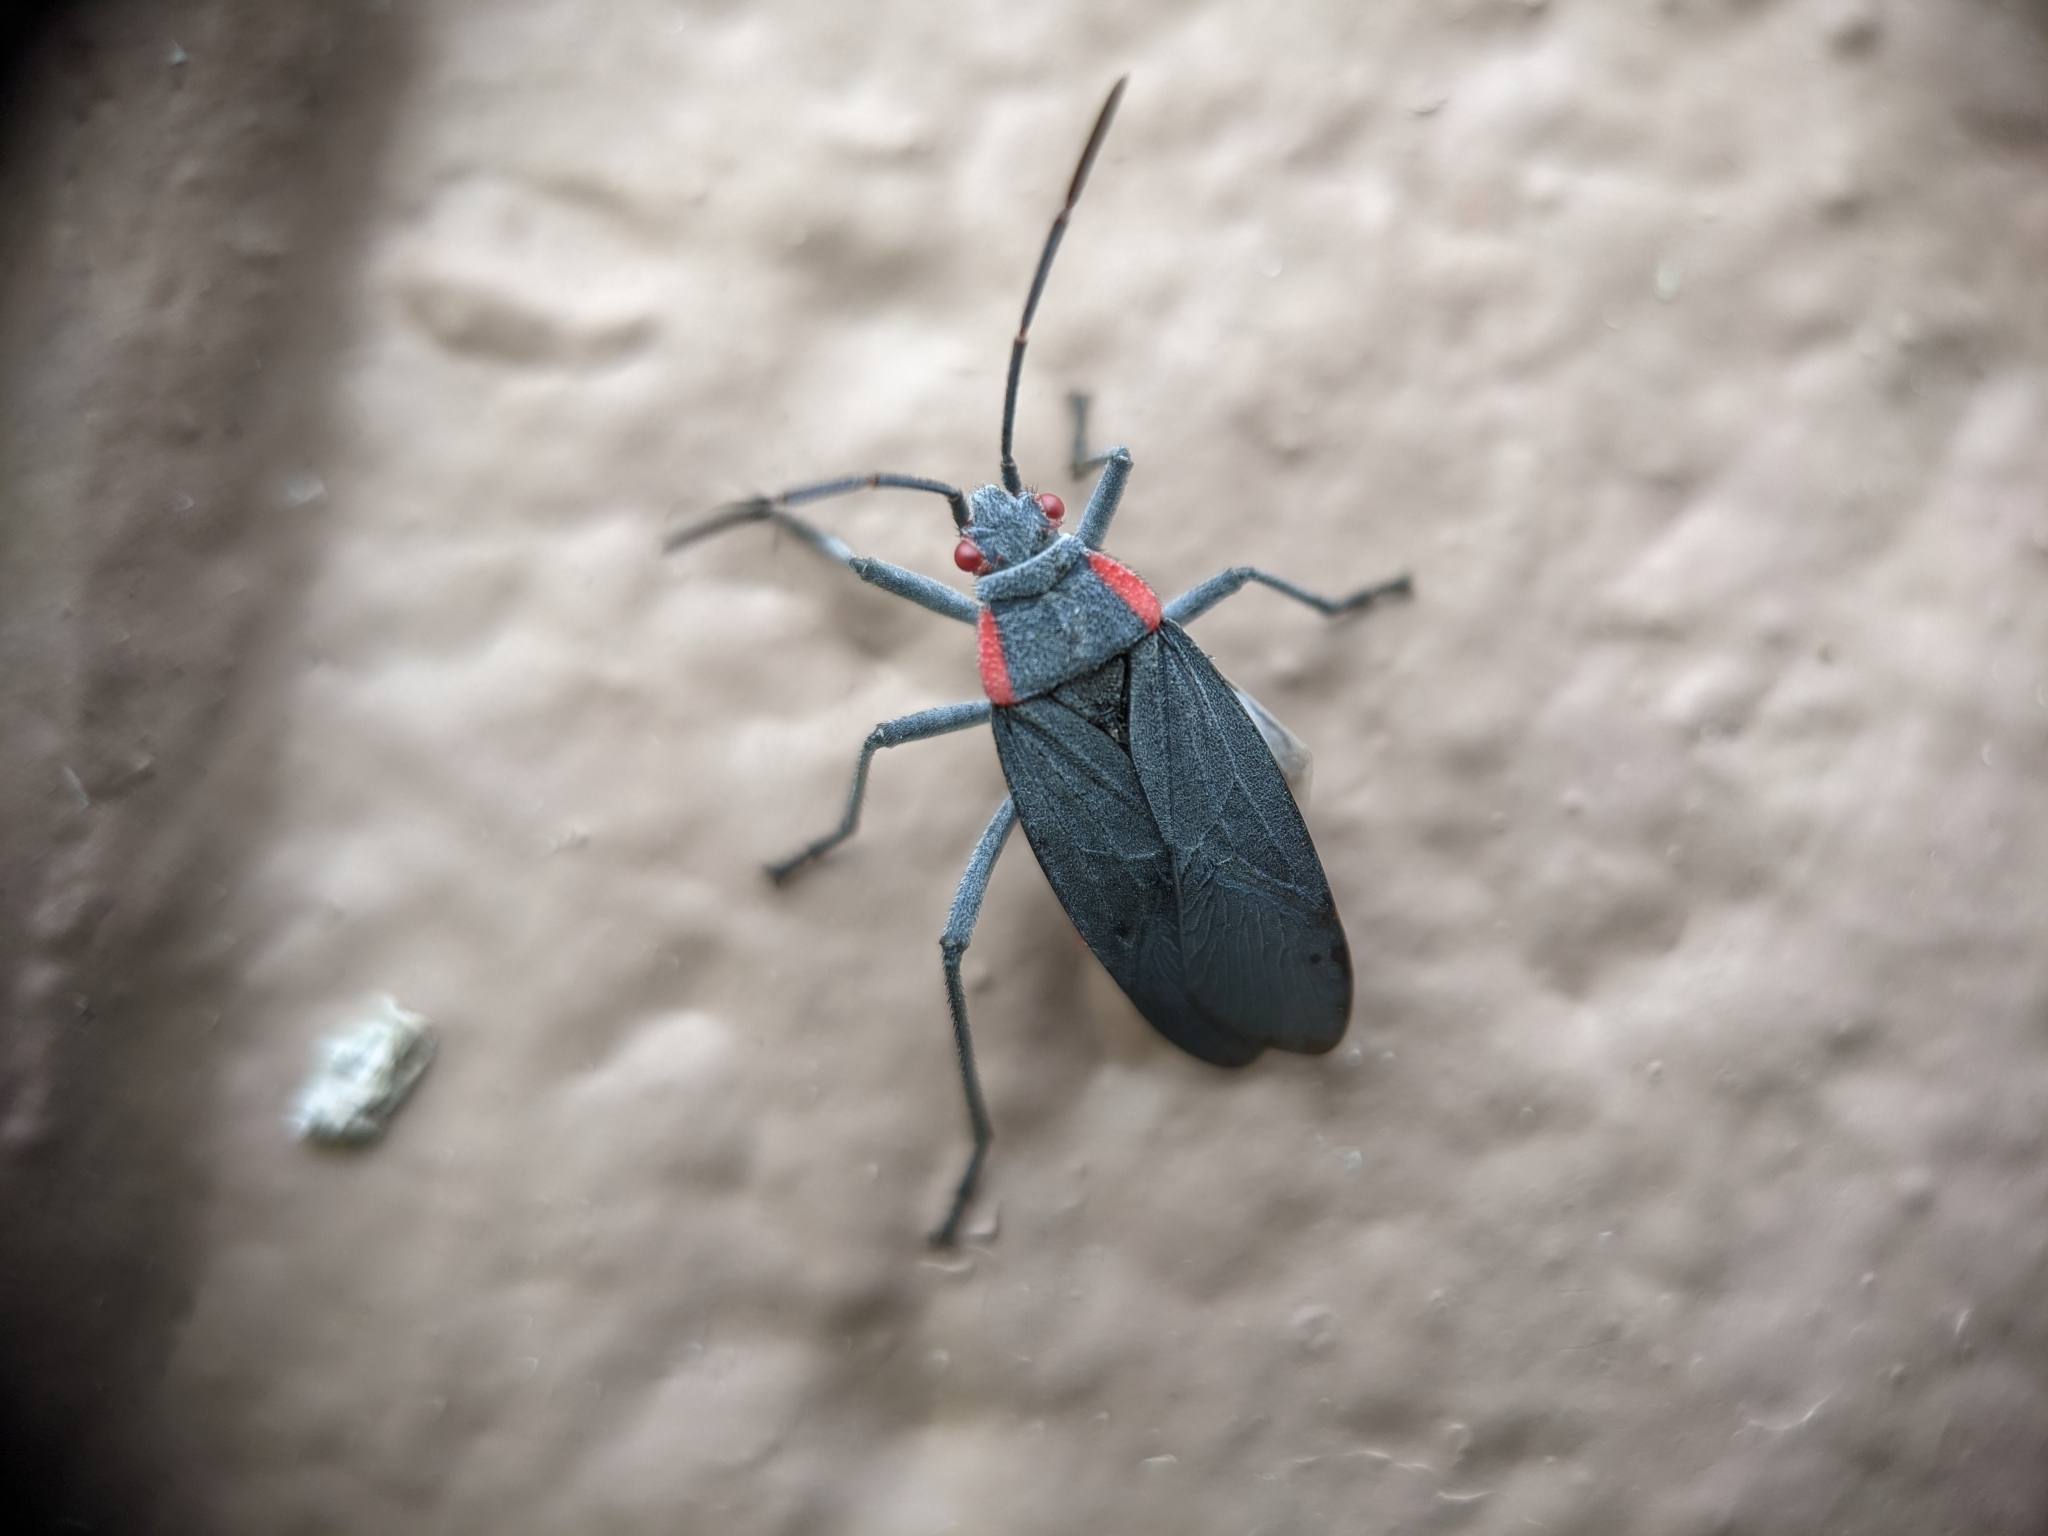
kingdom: Animalia
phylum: Arthropoda
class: Insecta
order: Hemiptera
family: Rhopalidae
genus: Jadera
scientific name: Jadera haematoloma
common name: Red-shouldered bug
